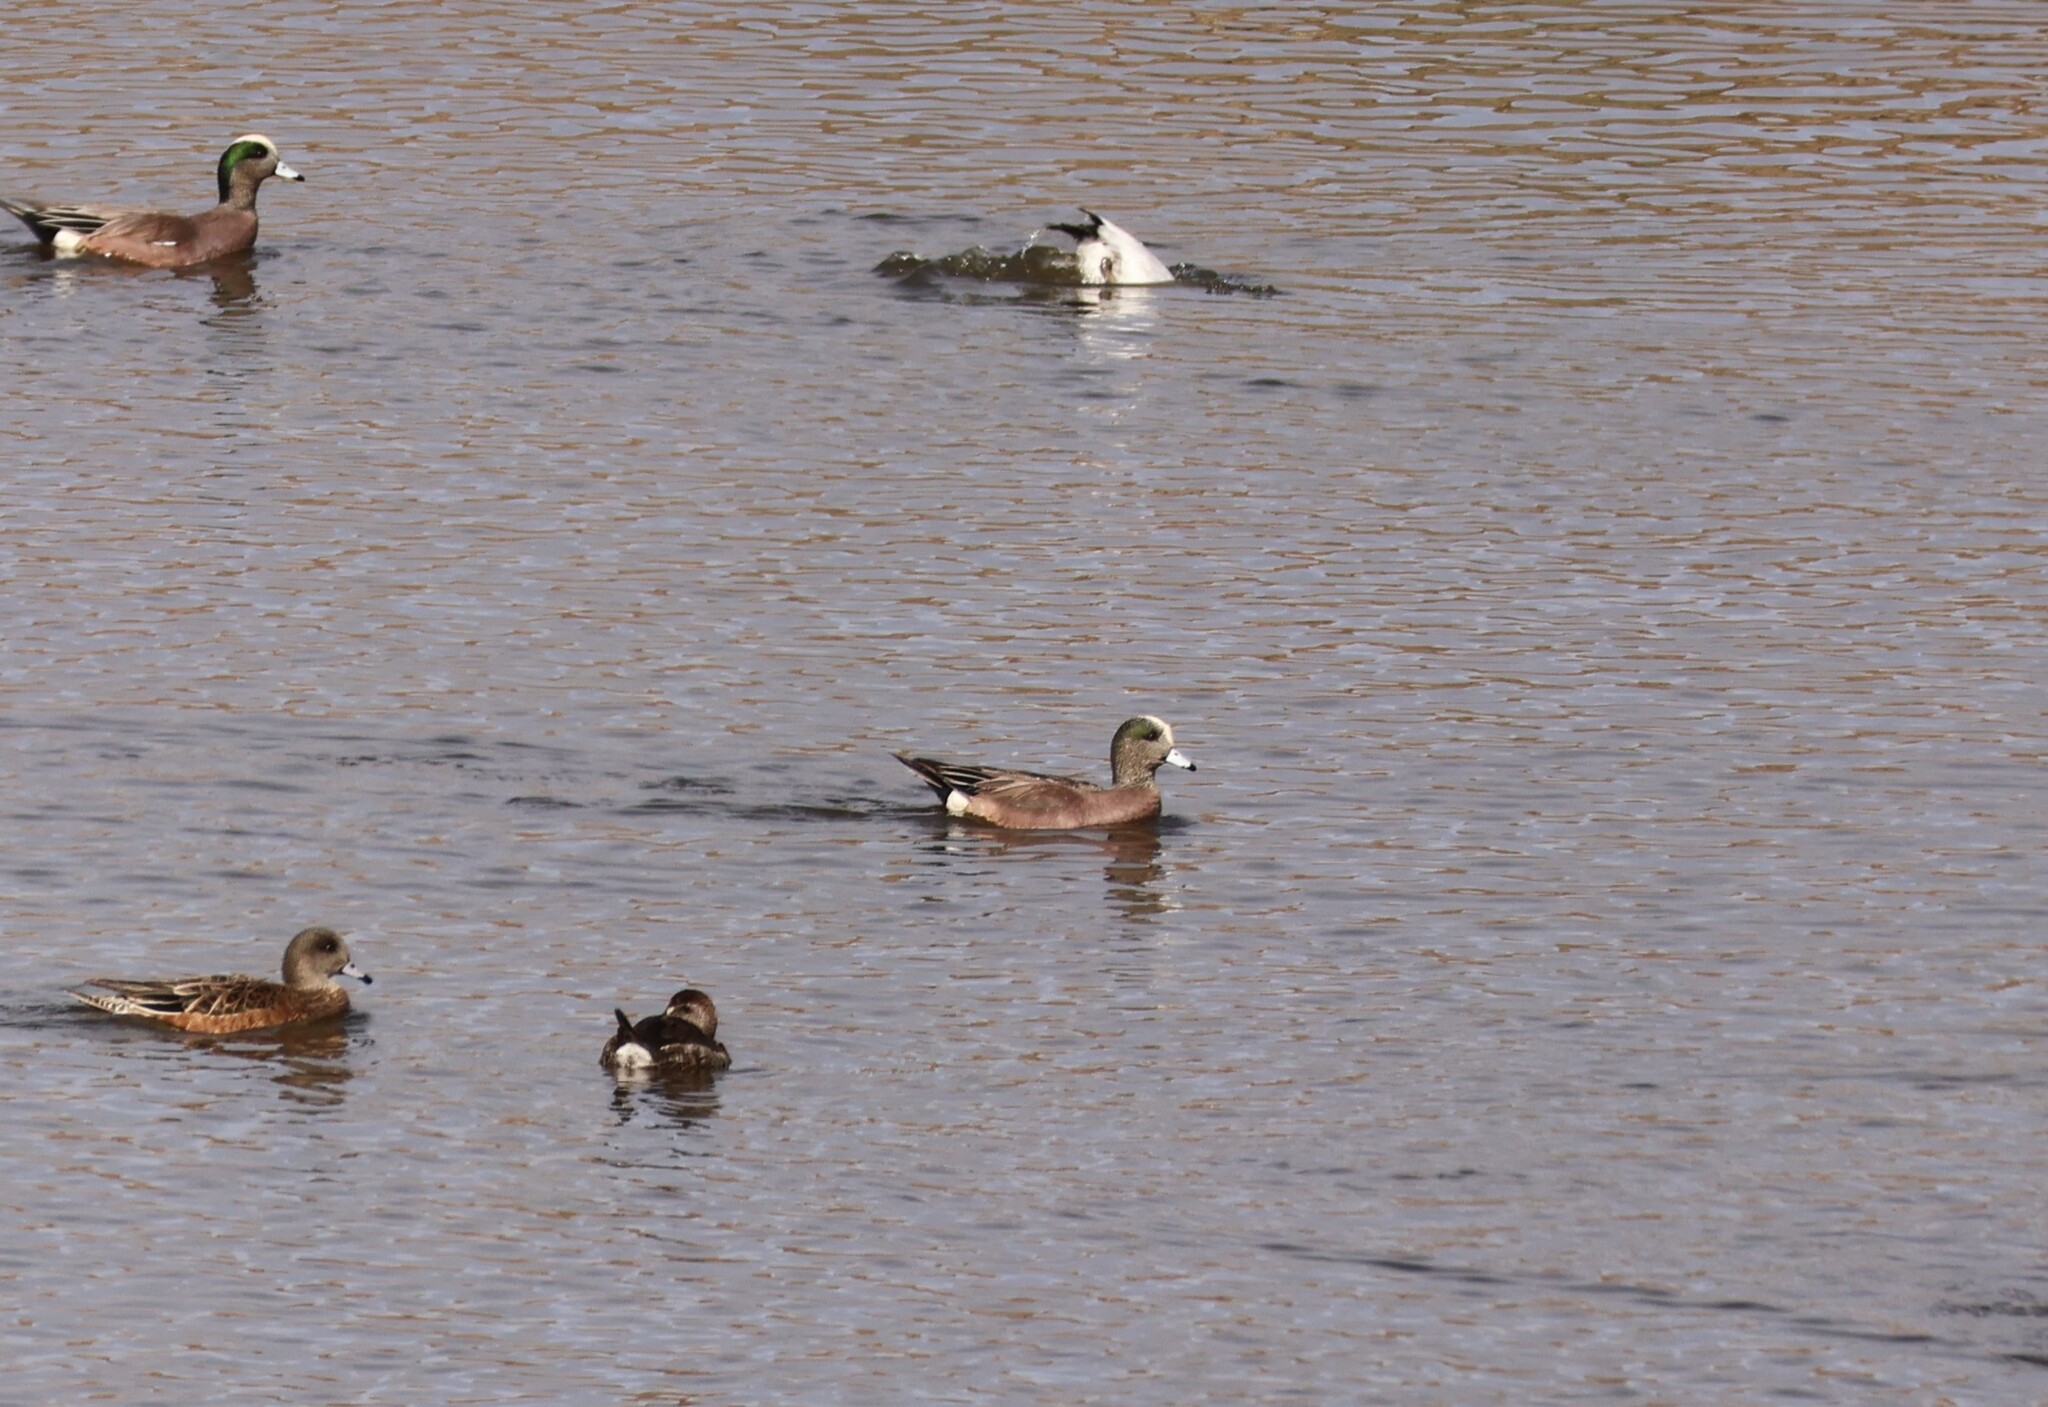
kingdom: Animalia
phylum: Chordata
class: Aves
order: Anseriformes
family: Anatidae
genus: Mareca
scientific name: Mareca americana
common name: American wigeon
